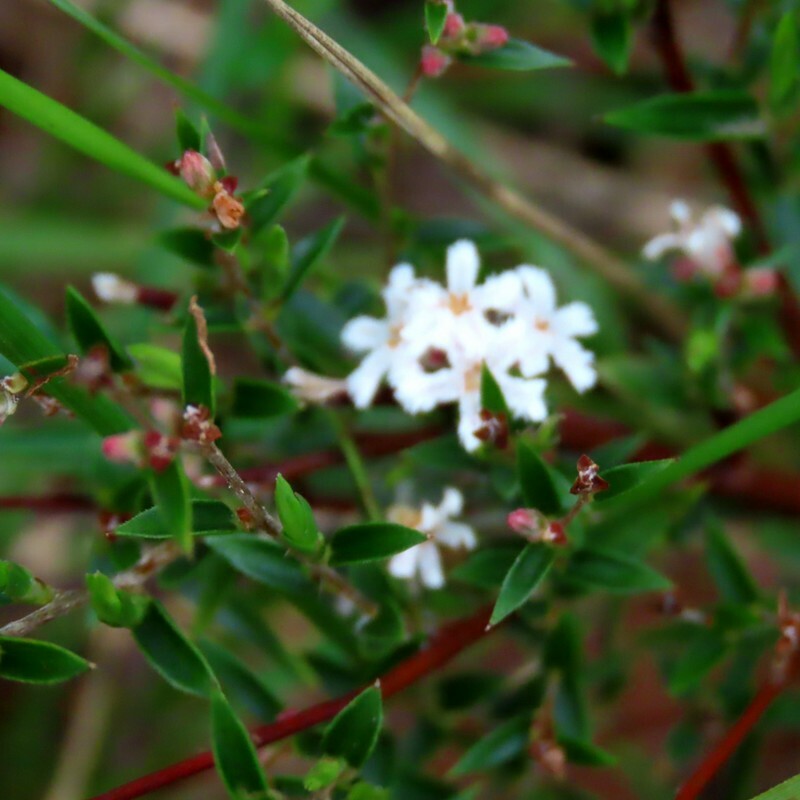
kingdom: Plantae
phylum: Tracheophyta
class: Magnoliopsida
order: Ericales
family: Ericaceae
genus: Leucopogon
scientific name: Leucopogon virgatus
